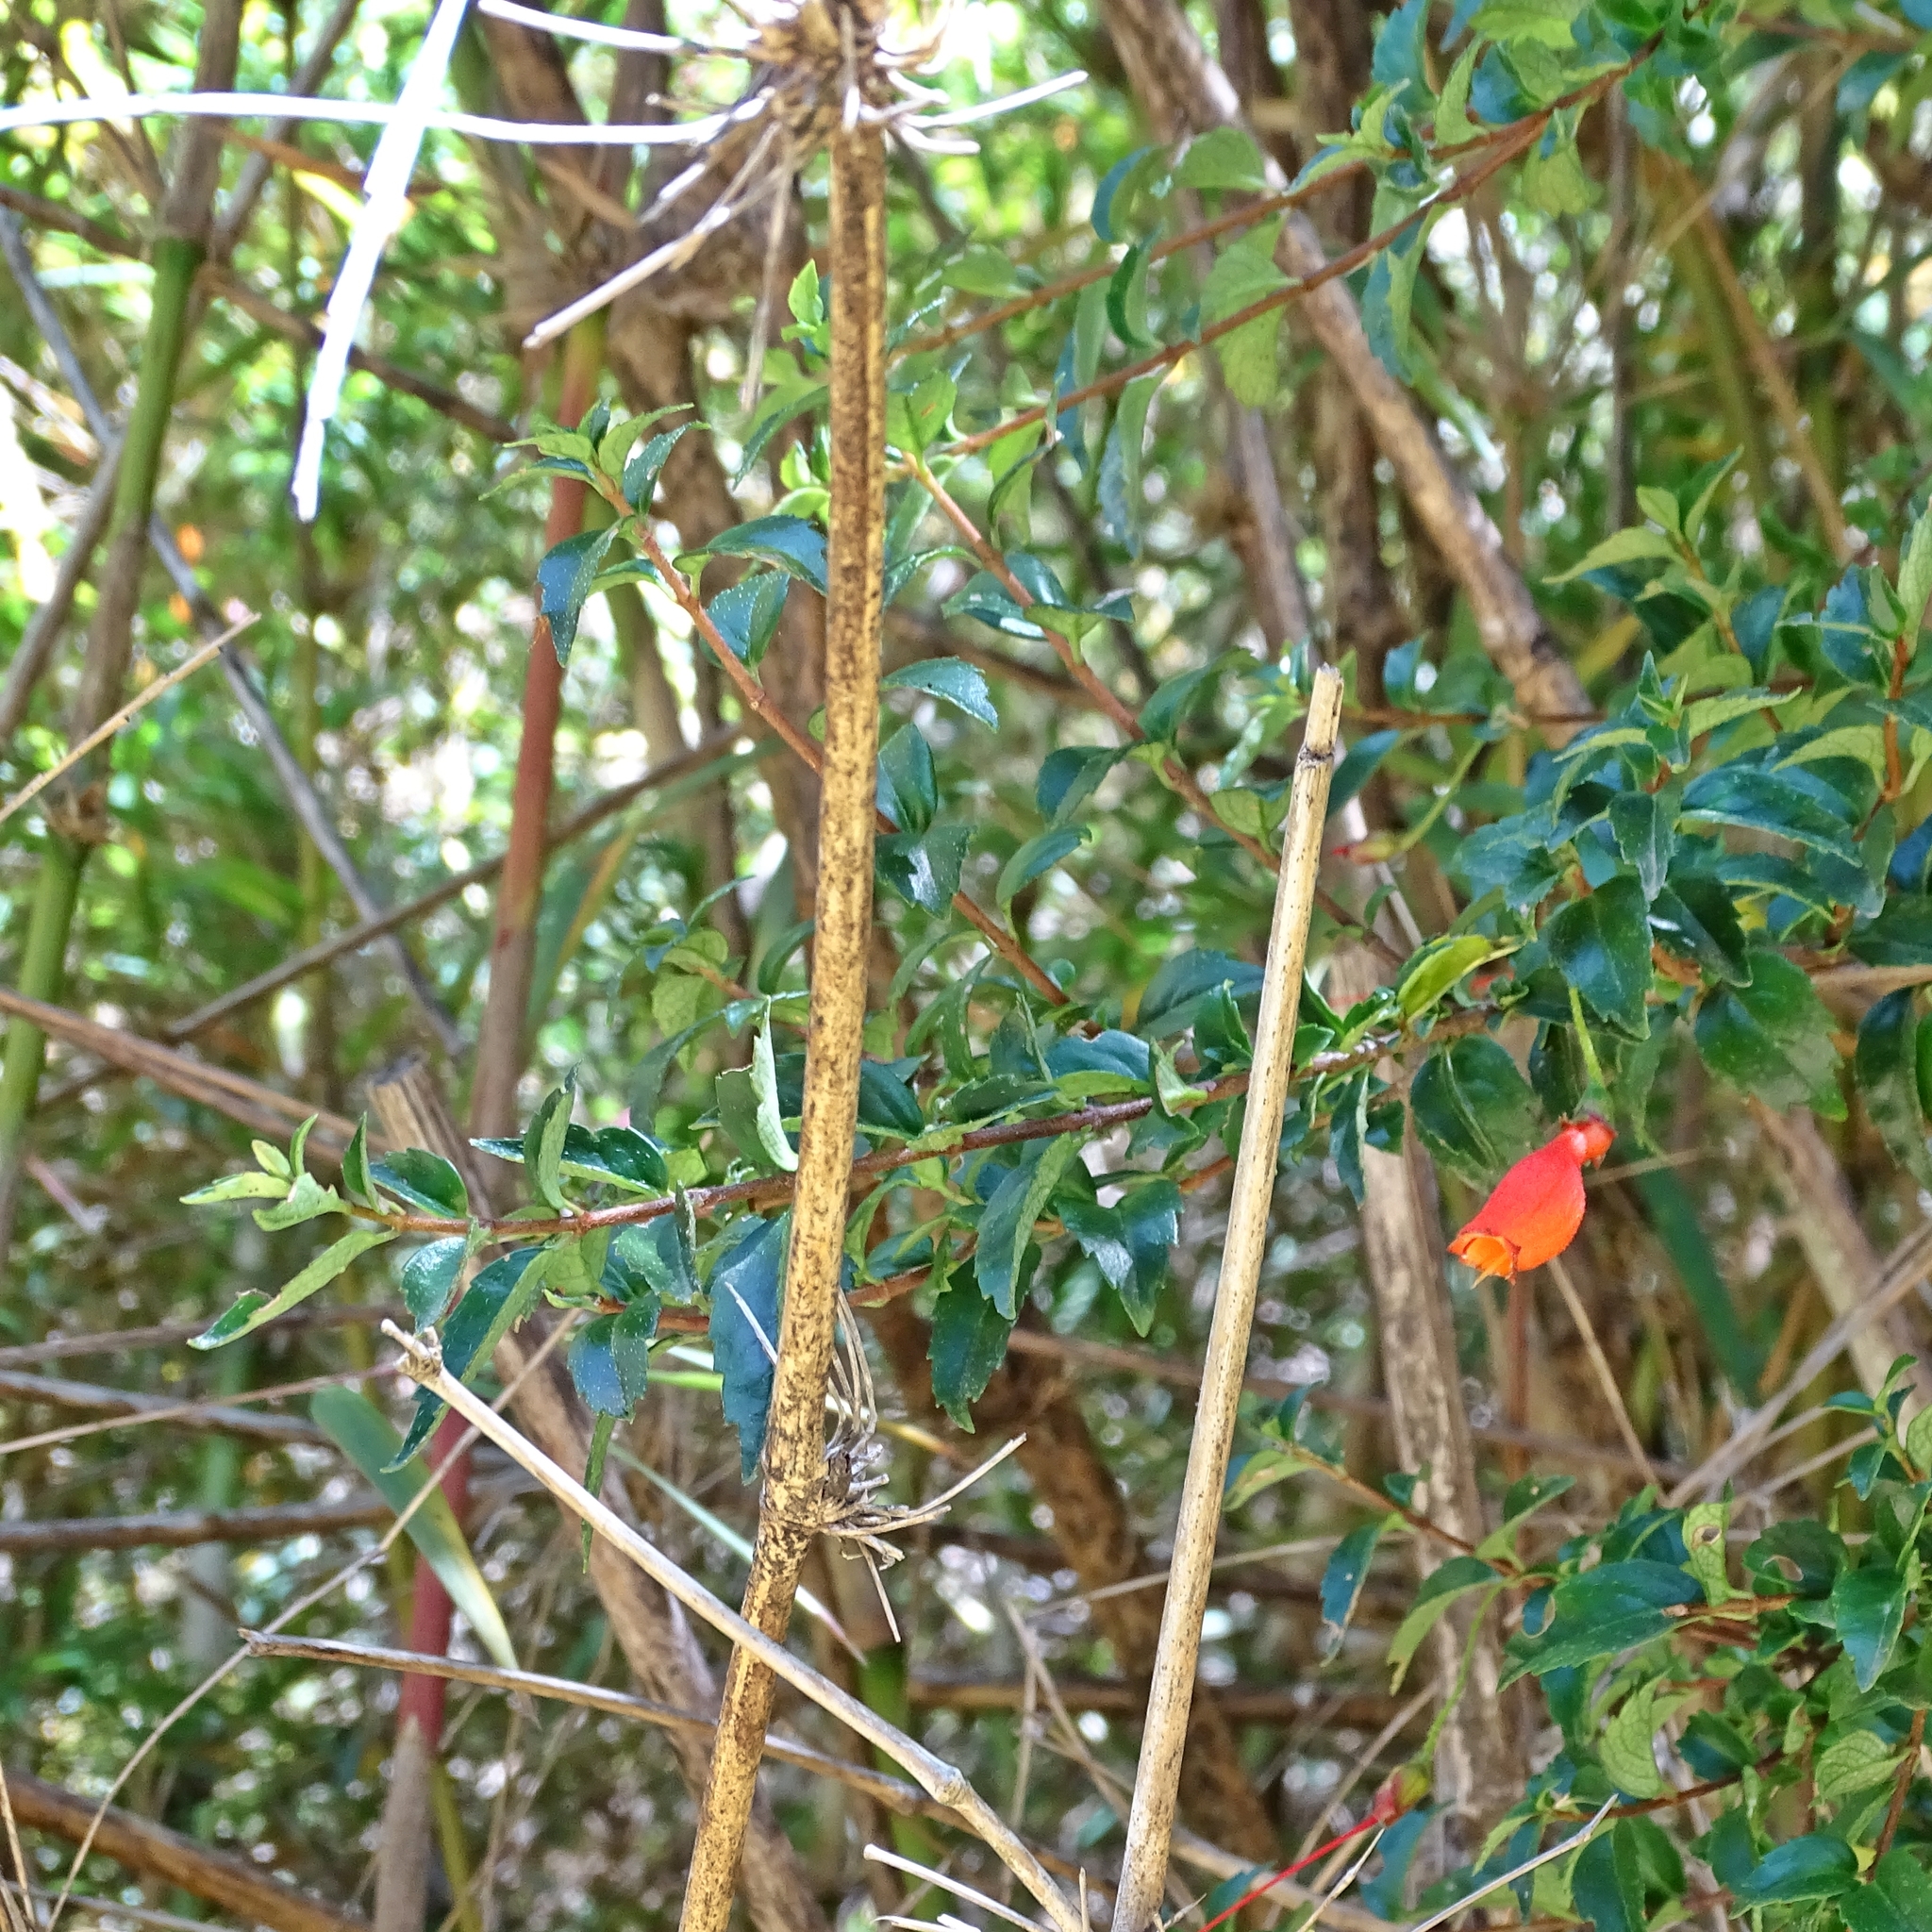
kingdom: Plantae
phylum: Tracheophyta
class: Magnoliopsida
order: Lamiales
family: Gesneriaceae
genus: Mitraria
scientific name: Mitraria coccinea
